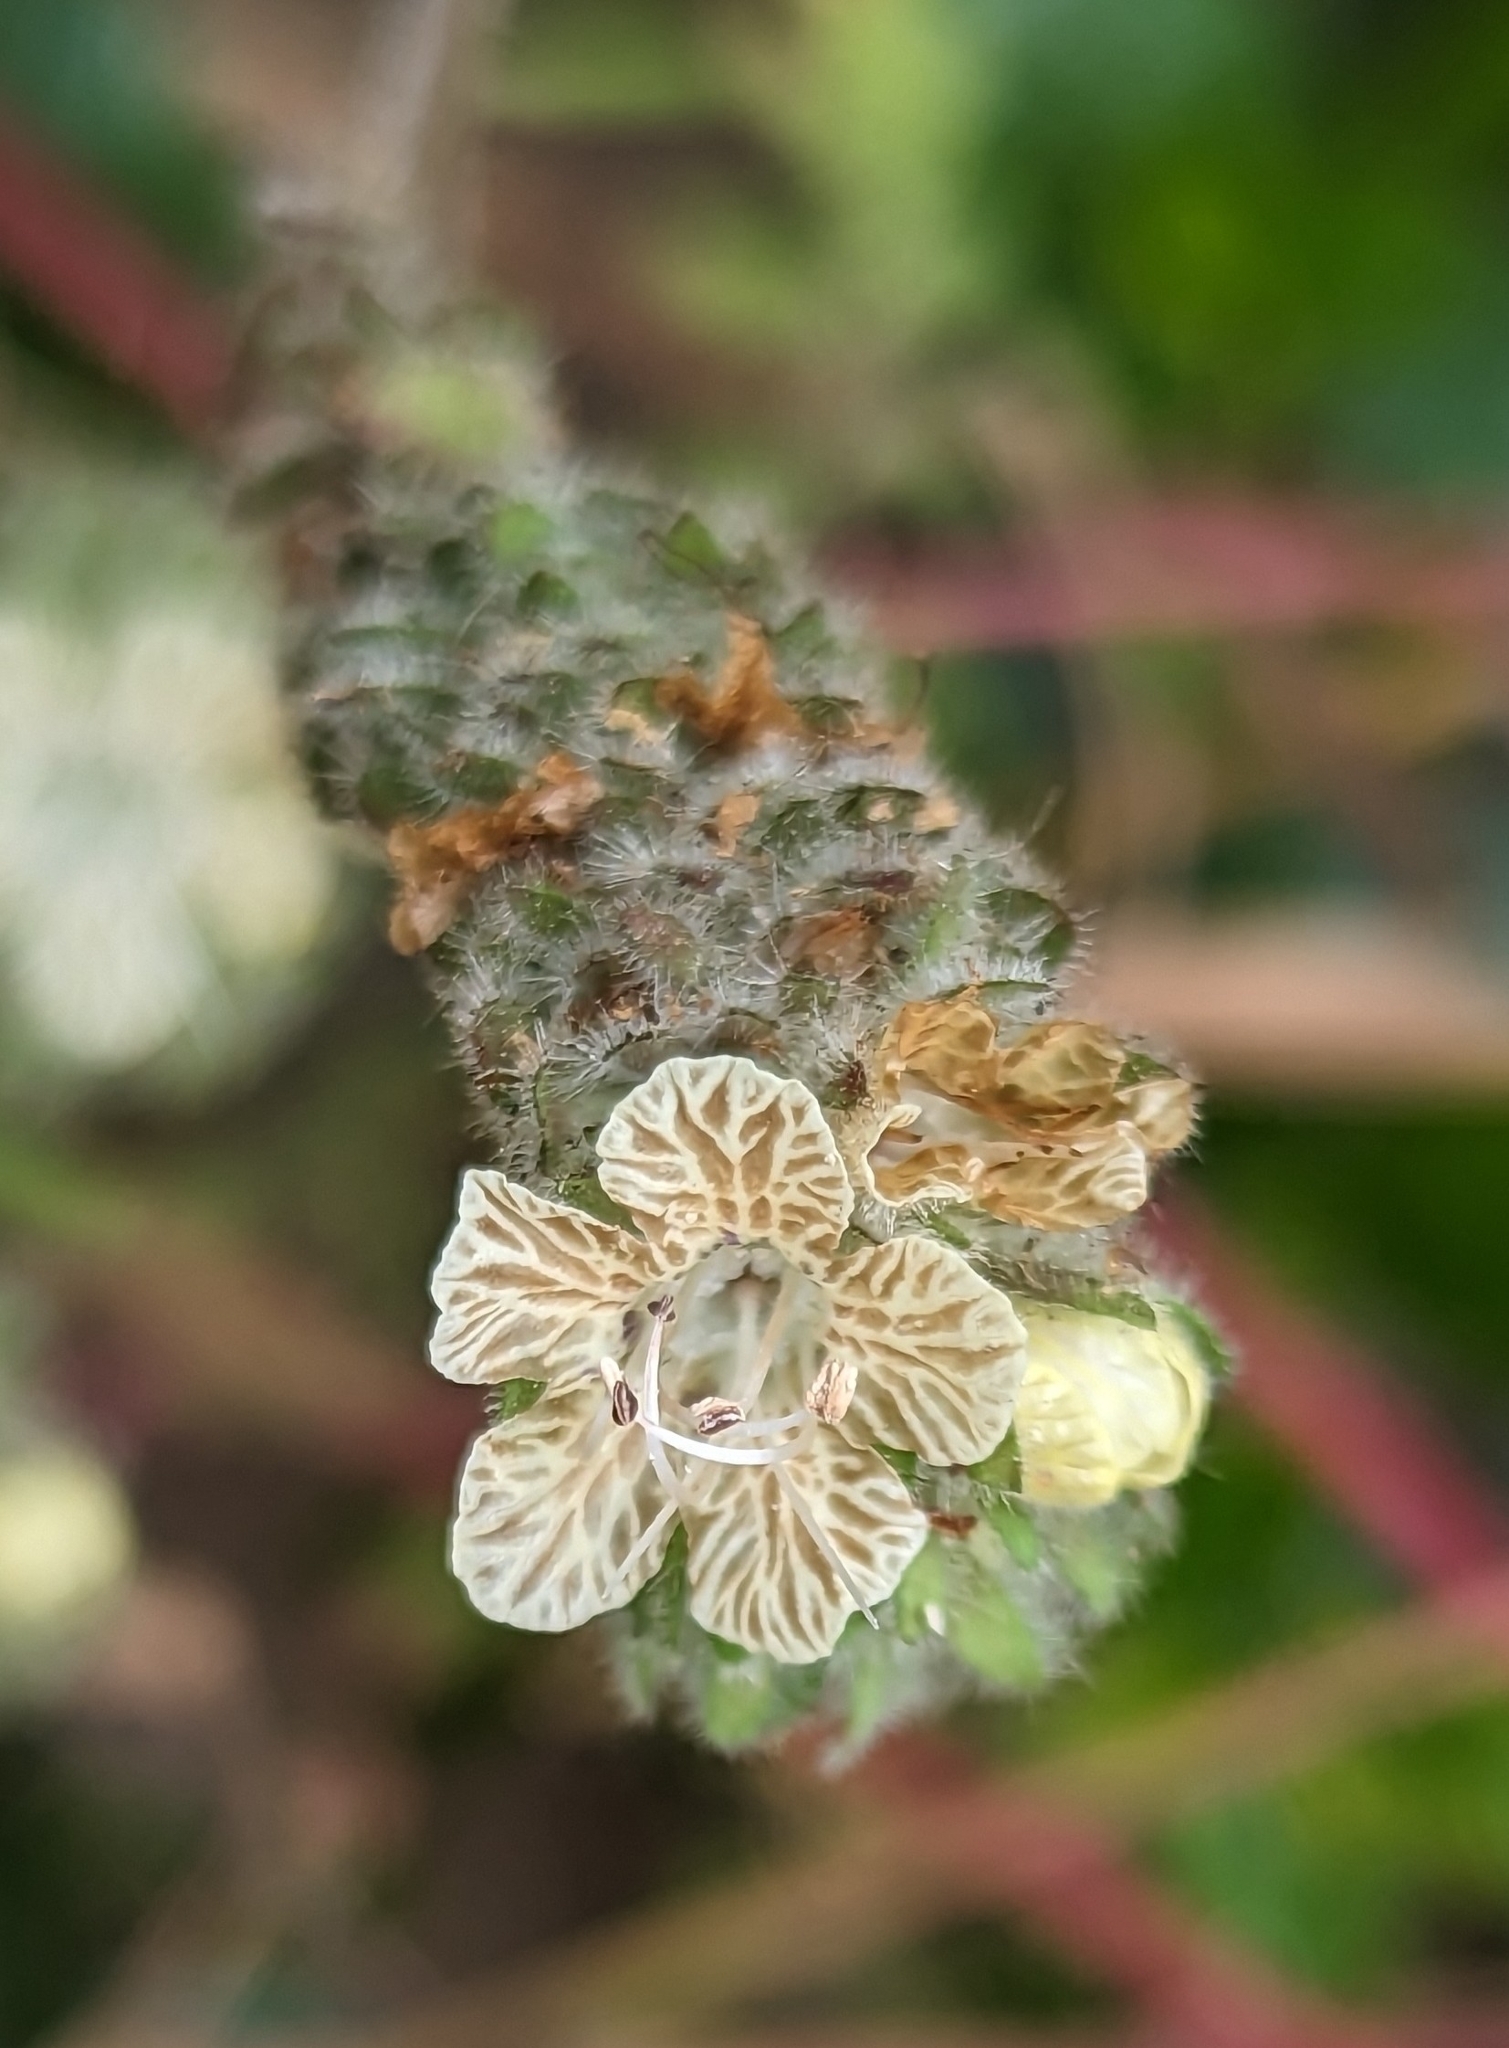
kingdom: Plantae
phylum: Tracheophyta
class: Magnoliopsida
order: Boraginales
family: Hydrophyllaceae
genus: Phacelia
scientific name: Phacelia distans
